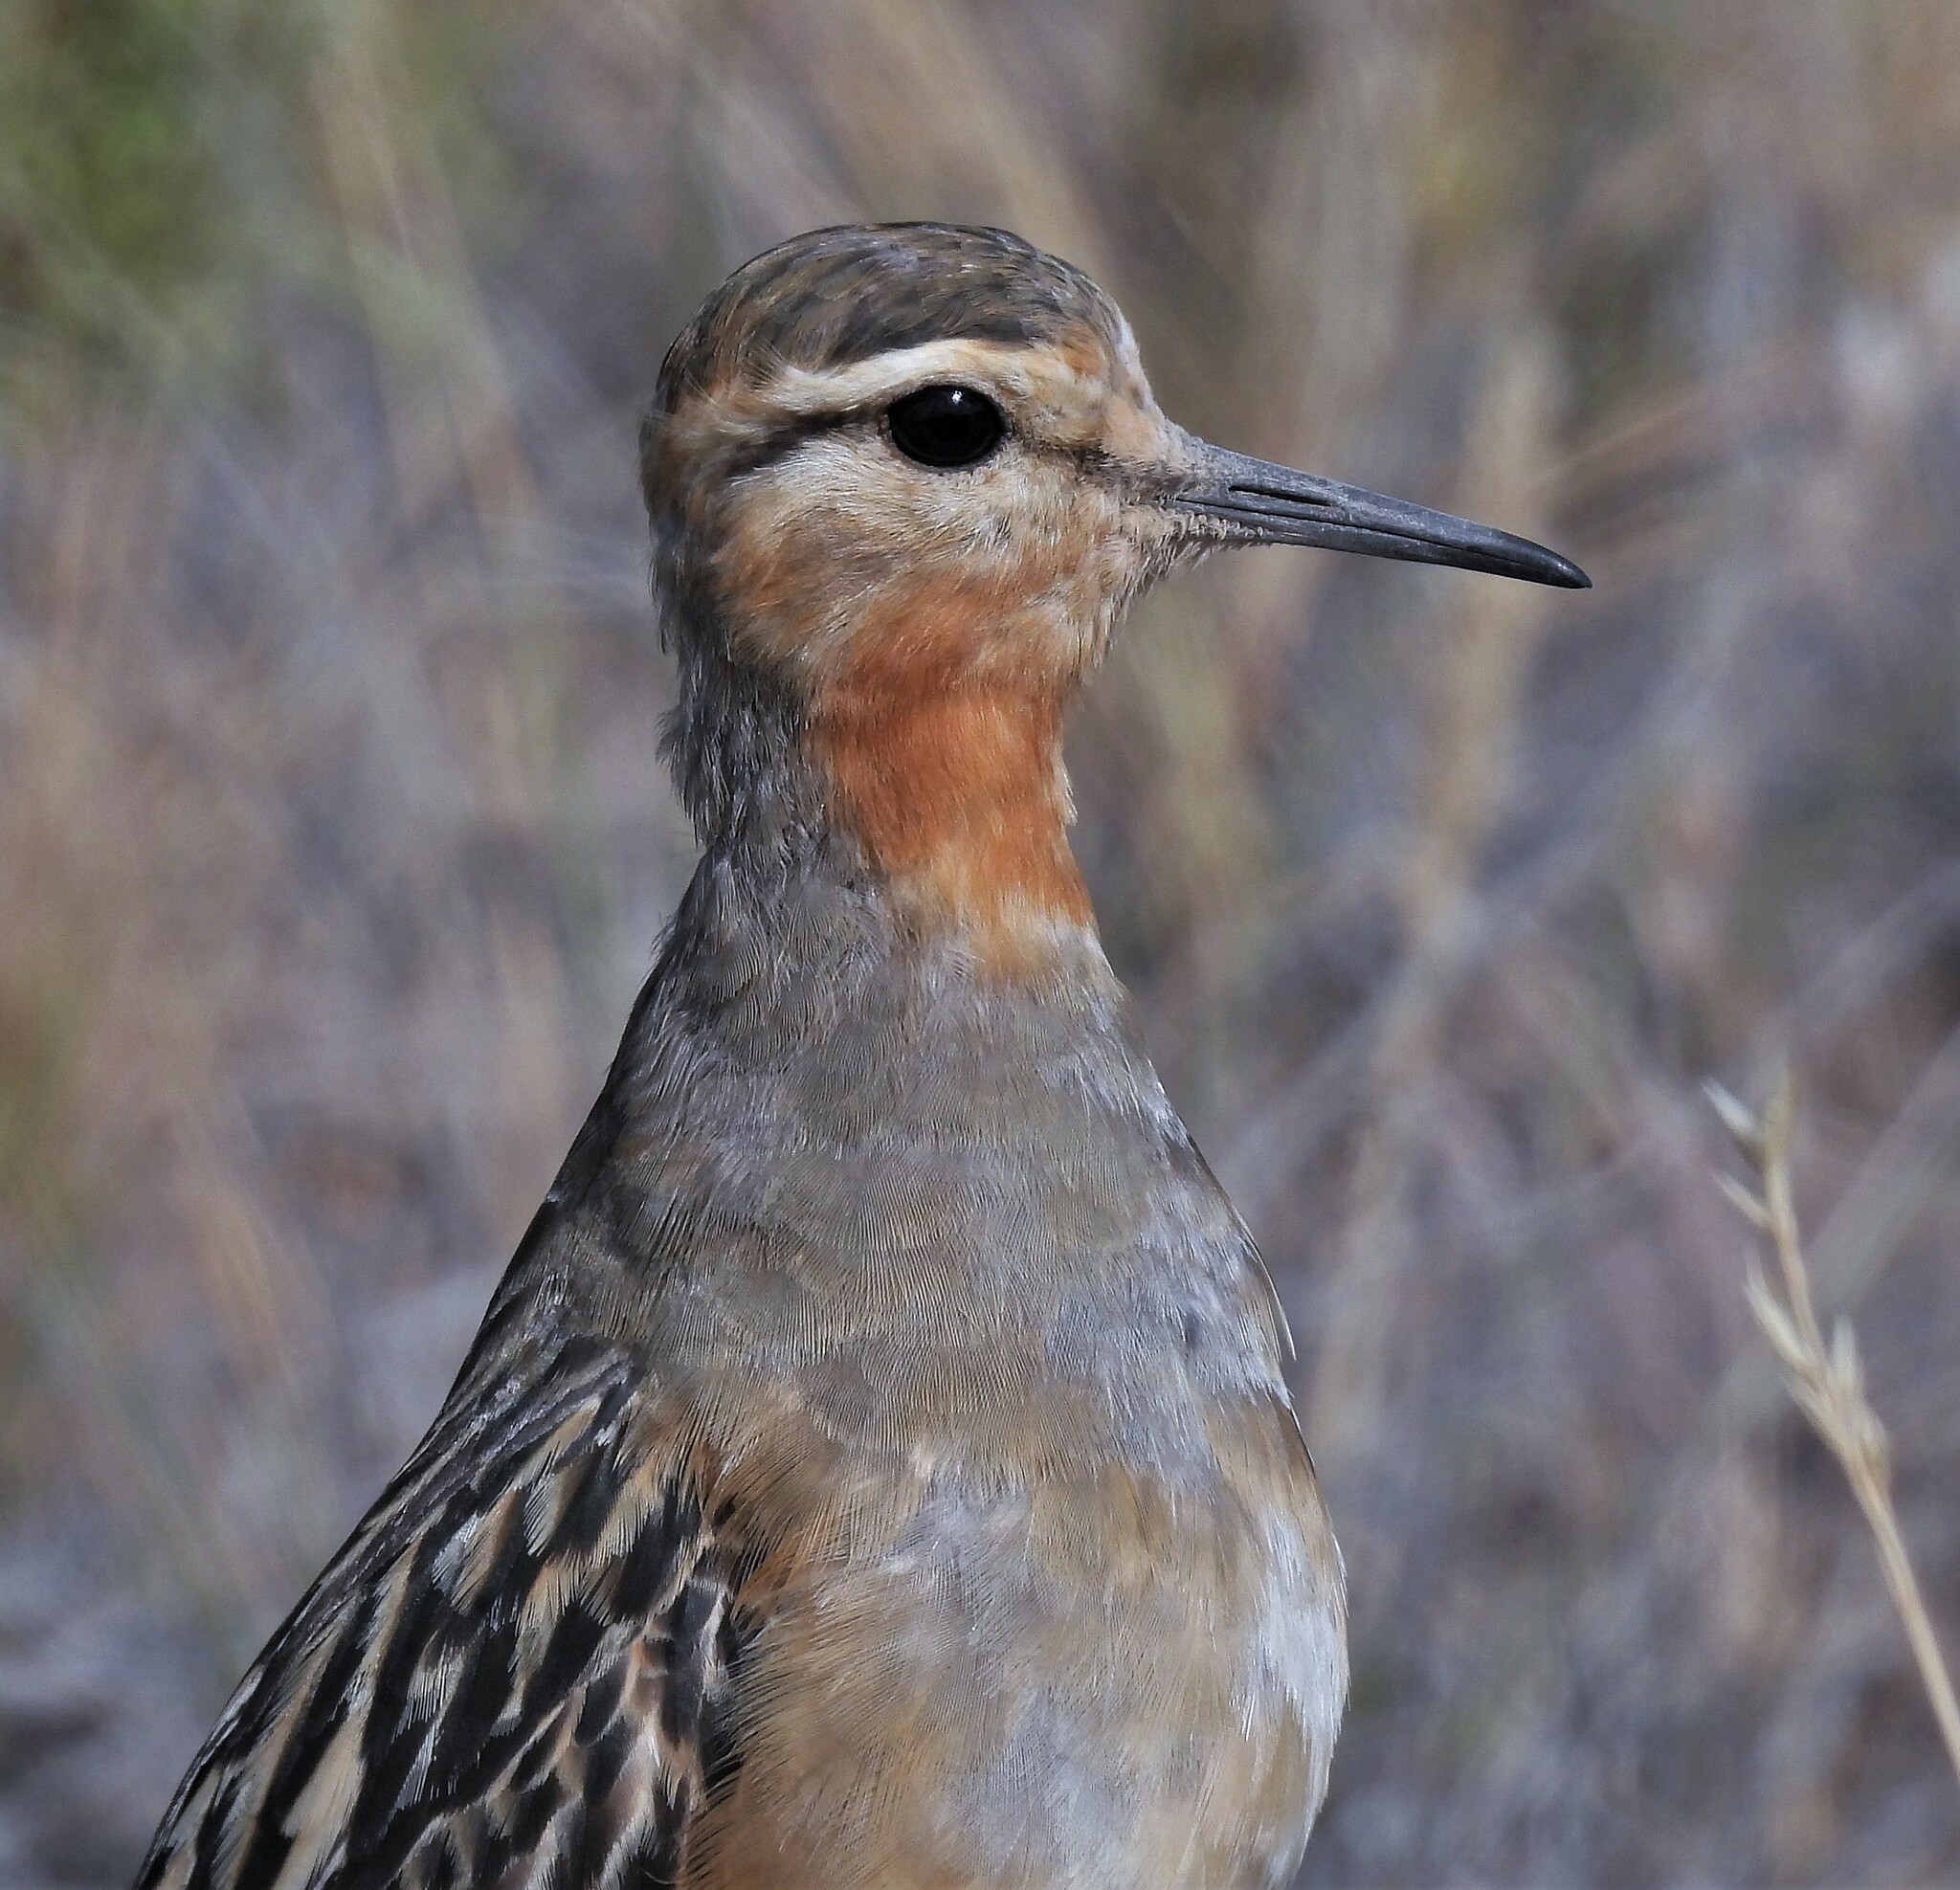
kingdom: Animalia
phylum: Chordata
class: Aves
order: Charadriiformes
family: Charadriidae
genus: Oreopholus
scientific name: Oreopholus ruficollis
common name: Tawny-throated dotterel
